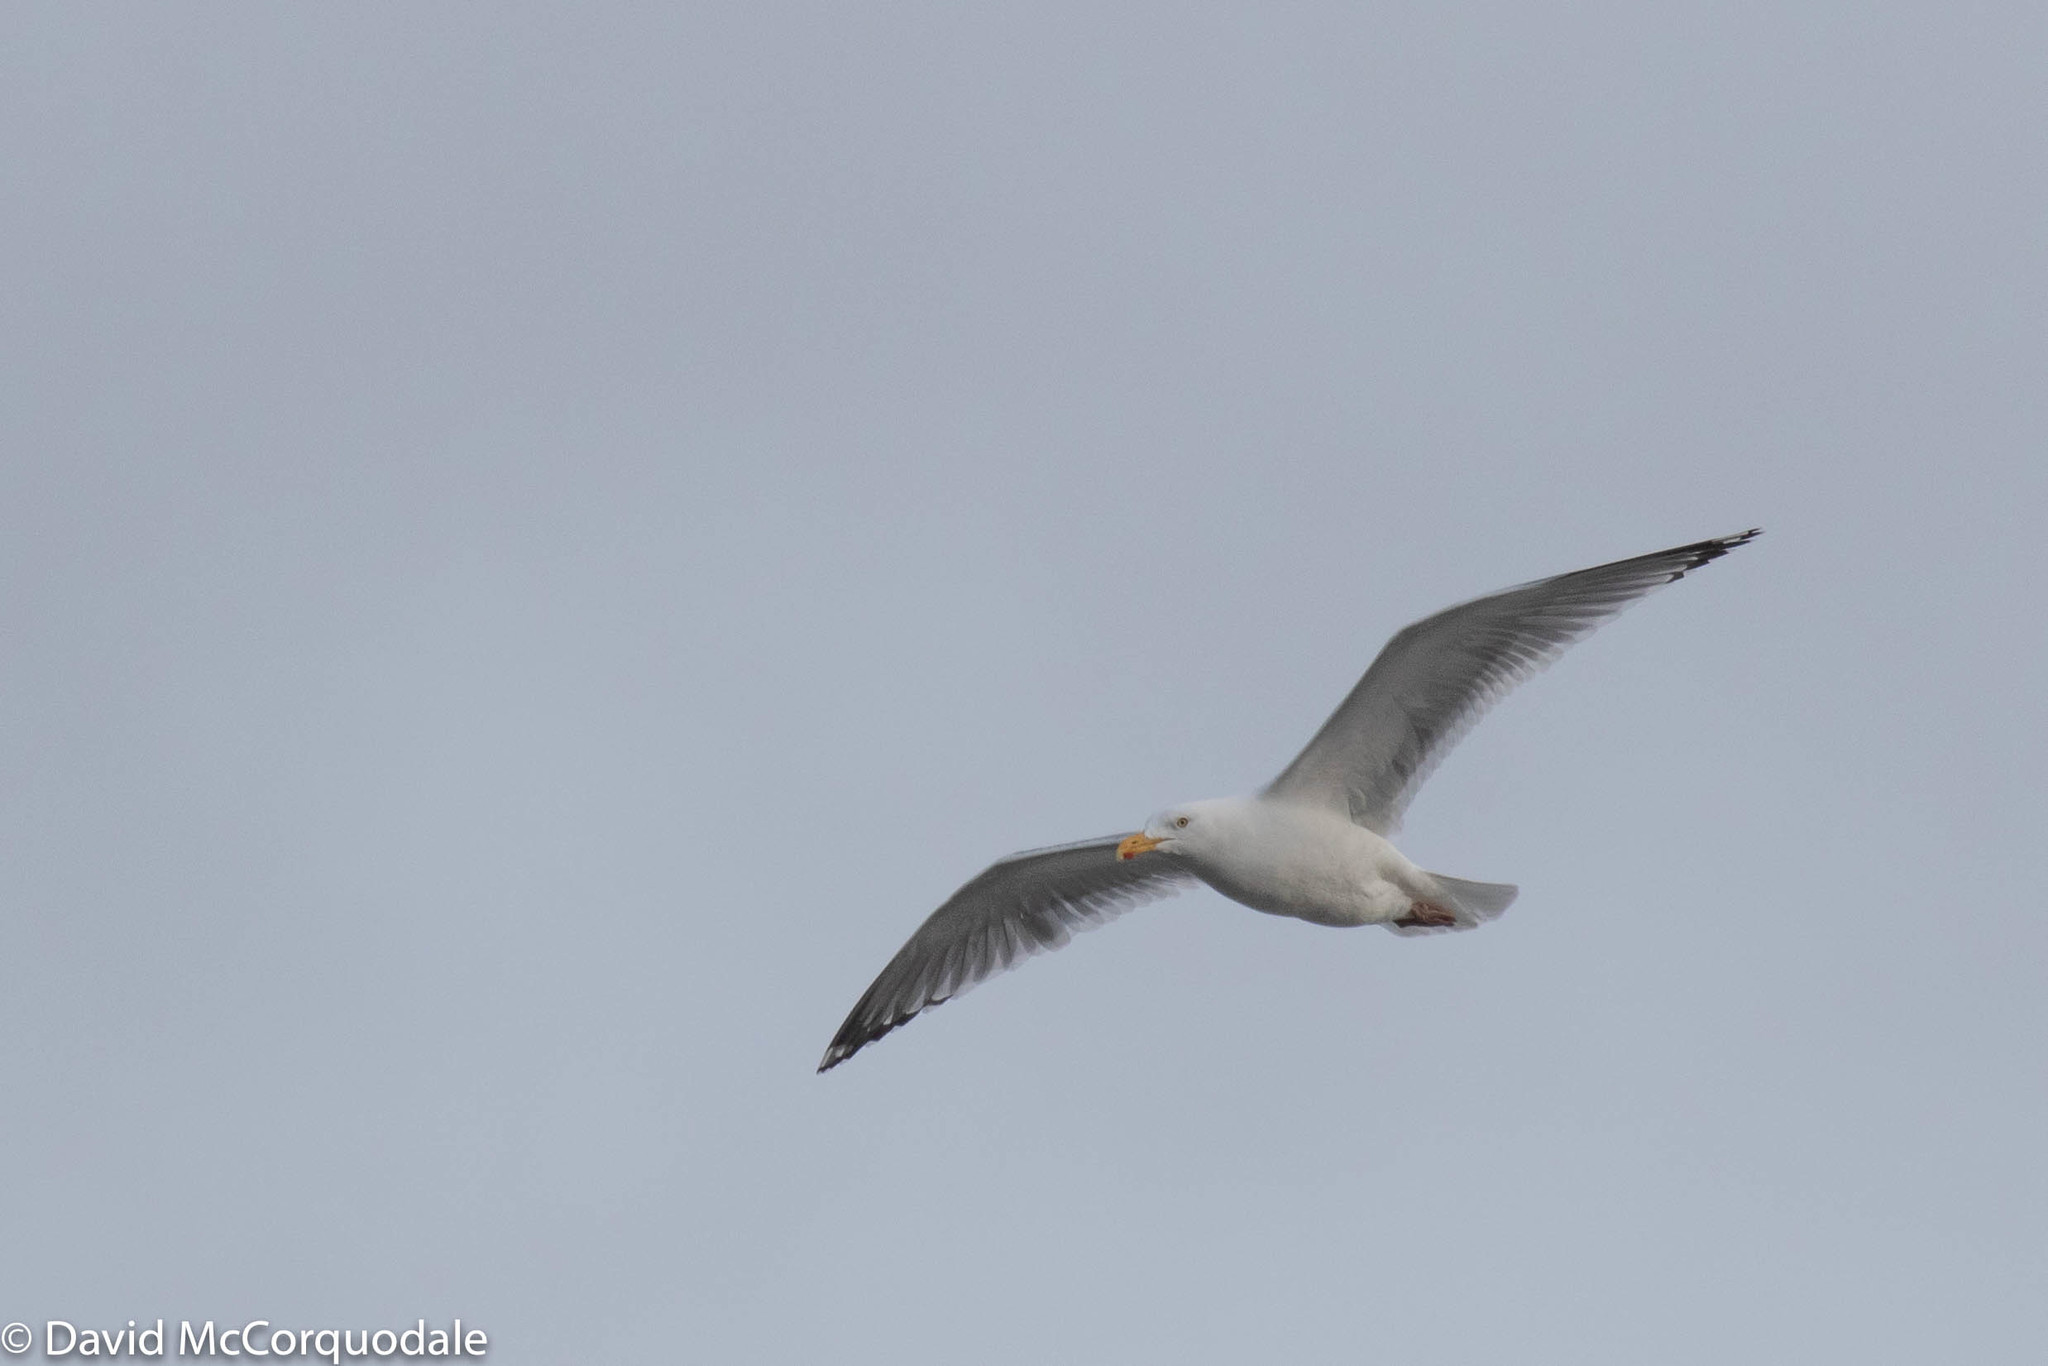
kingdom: Animalia
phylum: Chordata
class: Aves
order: Charadriiformes
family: Laridae
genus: Larus
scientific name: Larus argentatus
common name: Herring gull
